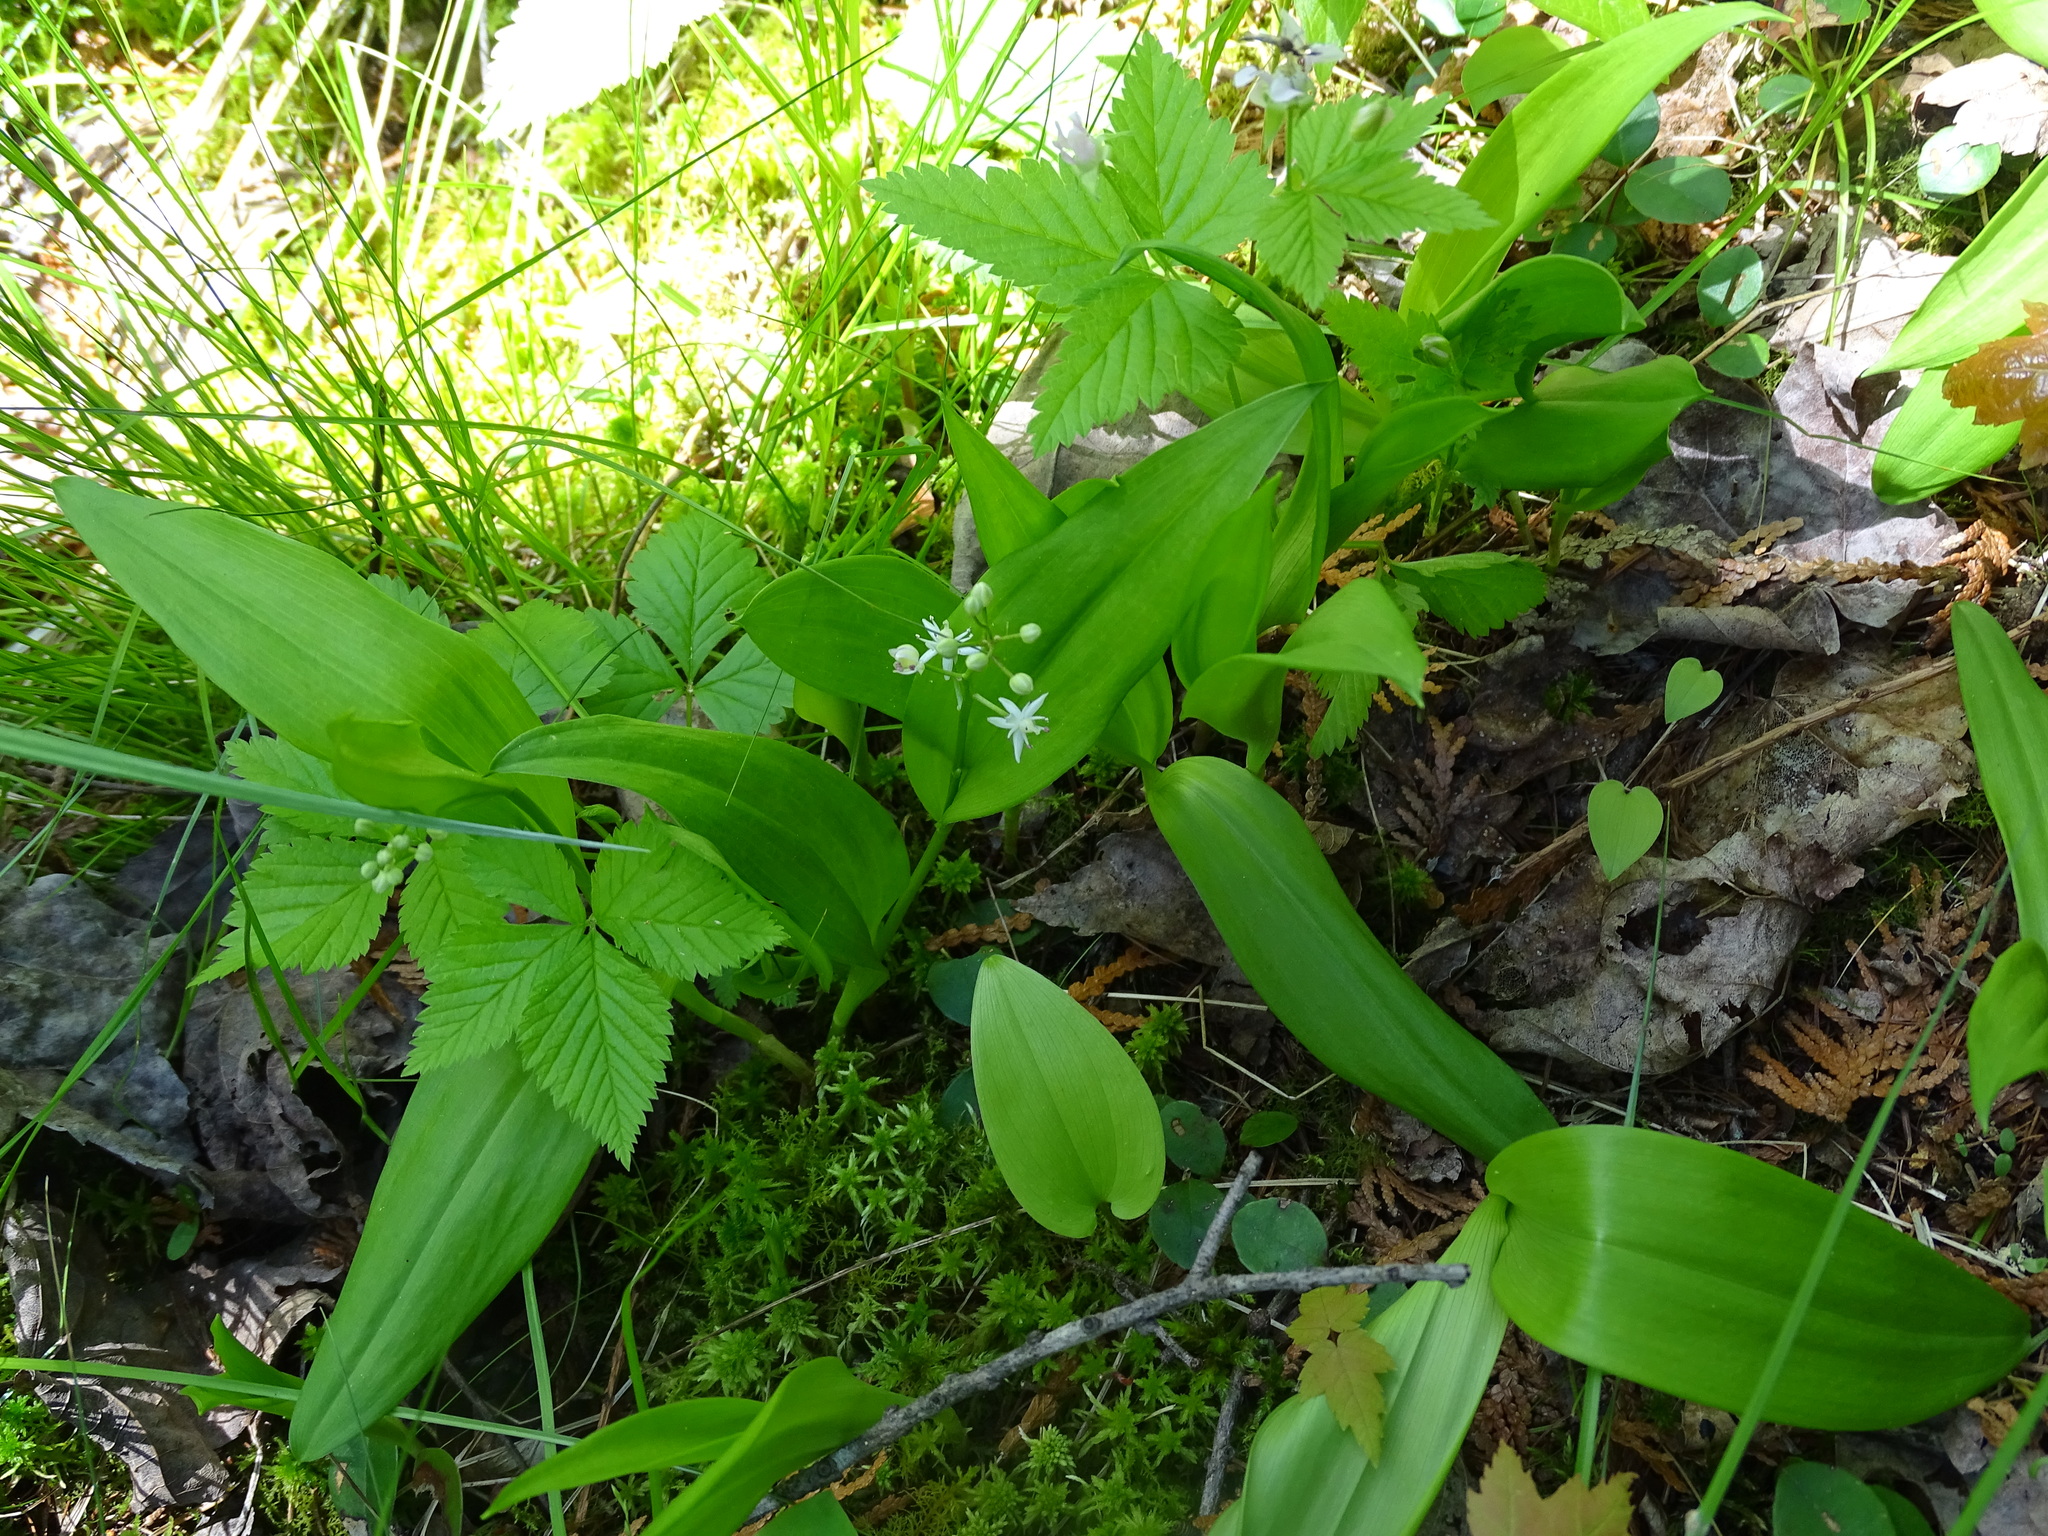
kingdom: Plantae
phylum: Tracheophyta
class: Liliopsida
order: Asparagales
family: Asparagaceae
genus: Maianthemum
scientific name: Maianthemum trifolium
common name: Swamp false solomon's seal
